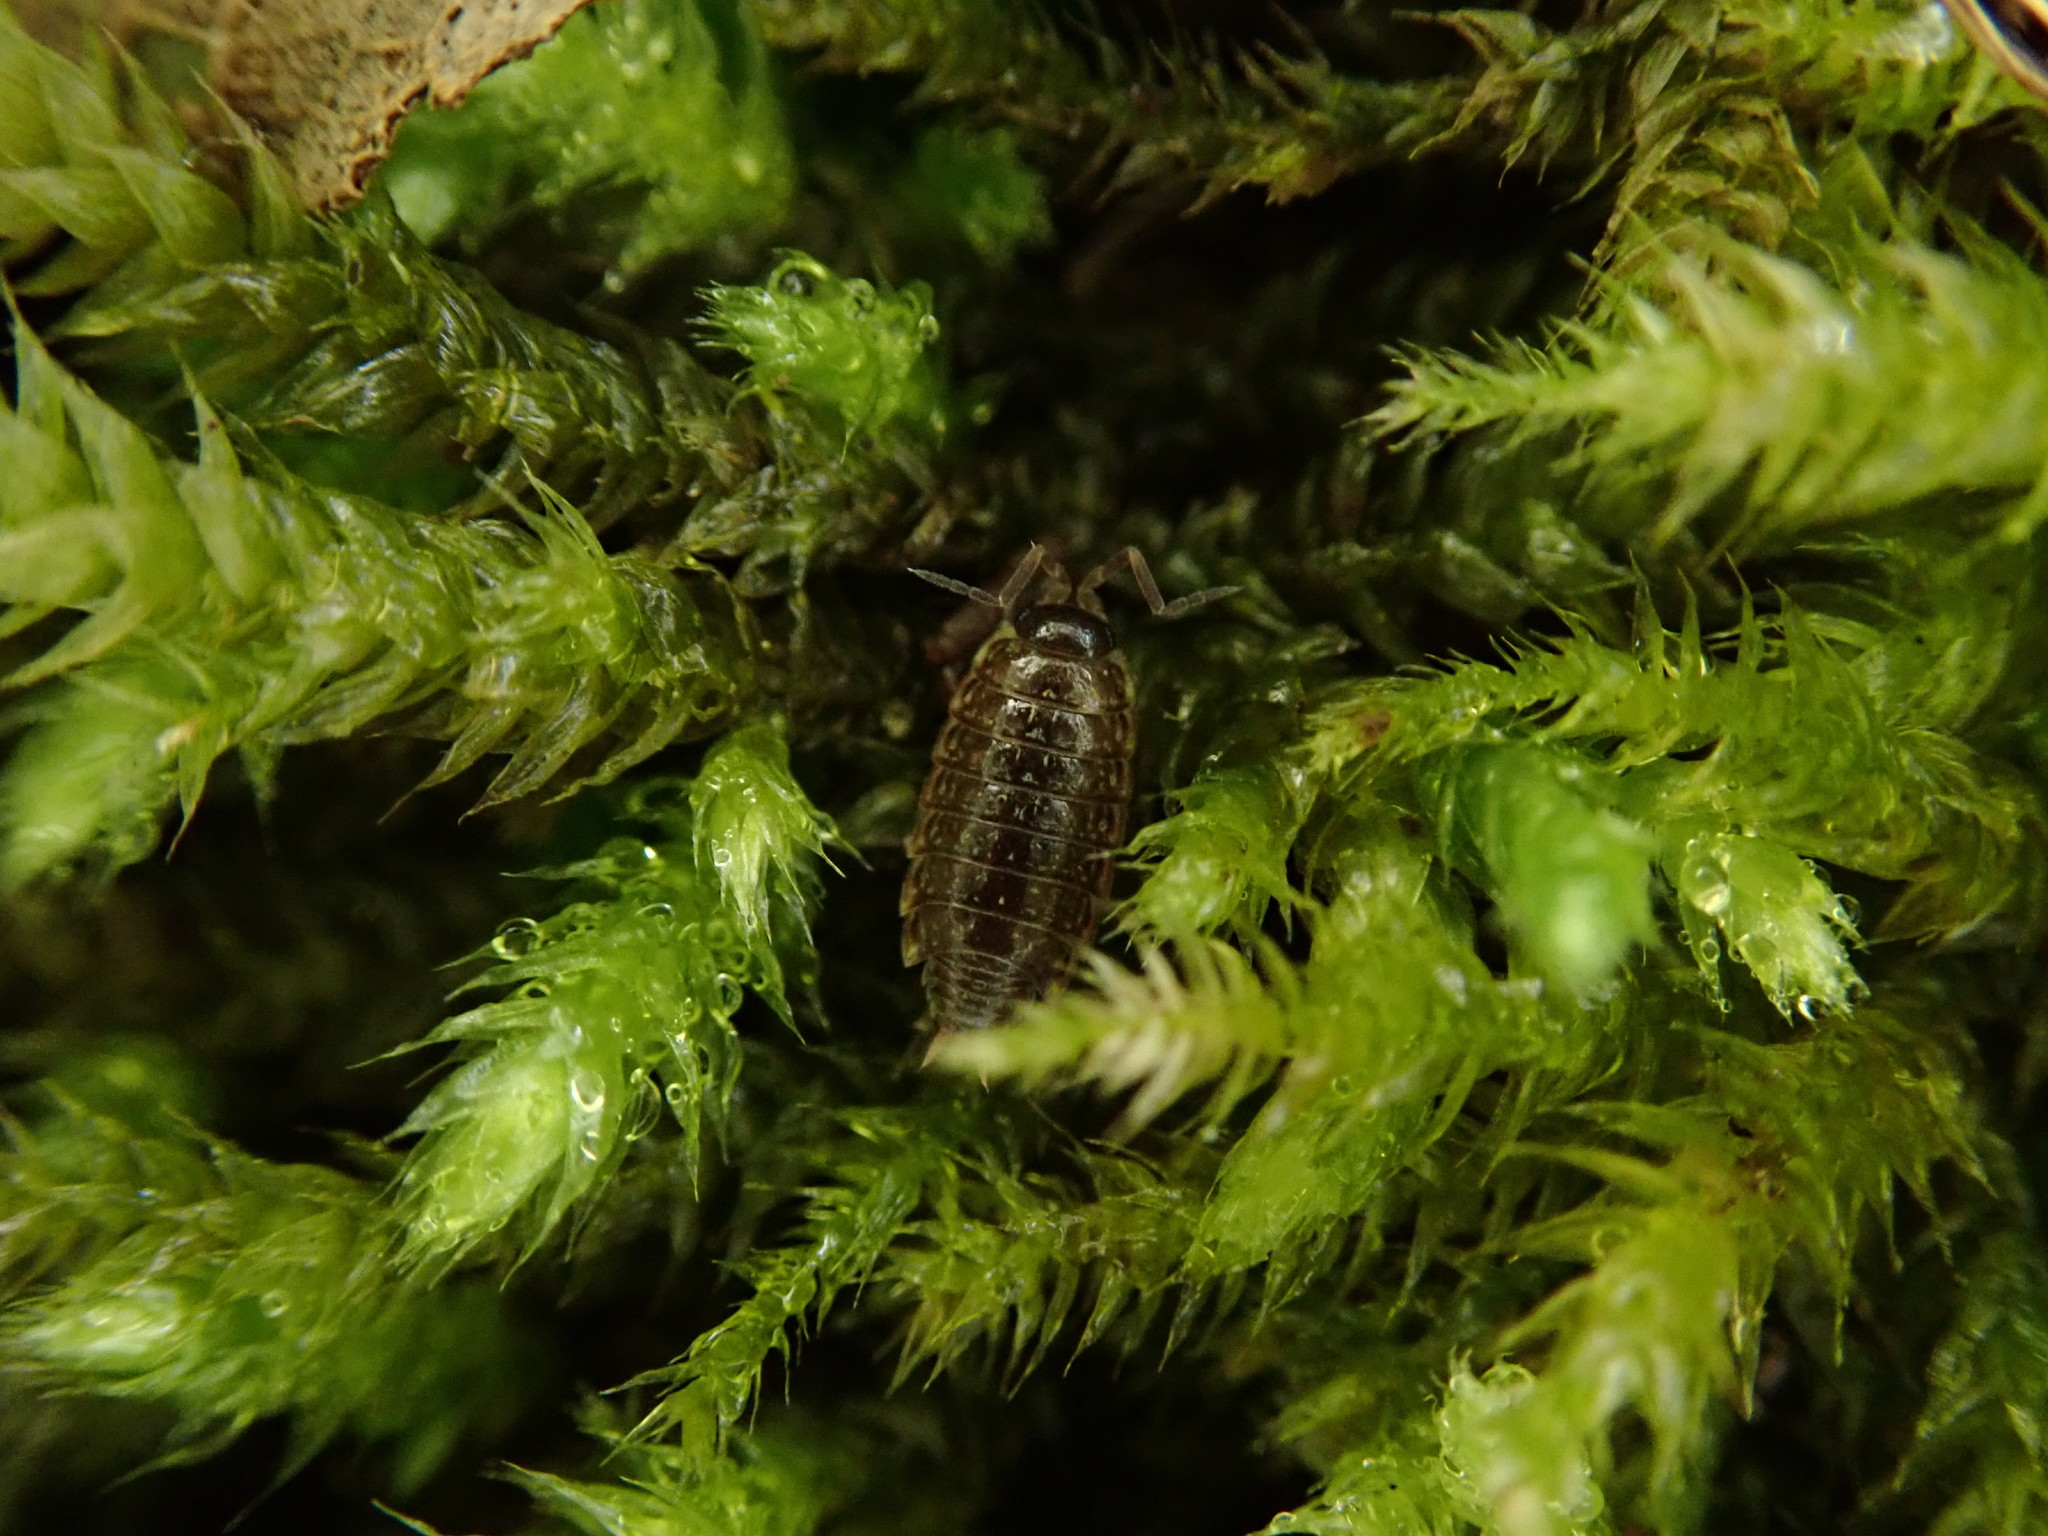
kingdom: Animalia
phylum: Arthropoda
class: Malacostraca
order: Isopoda
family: Philosciidae
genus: Philoscia
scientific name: Philoscia muscorum
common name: Common striped woodlouse
